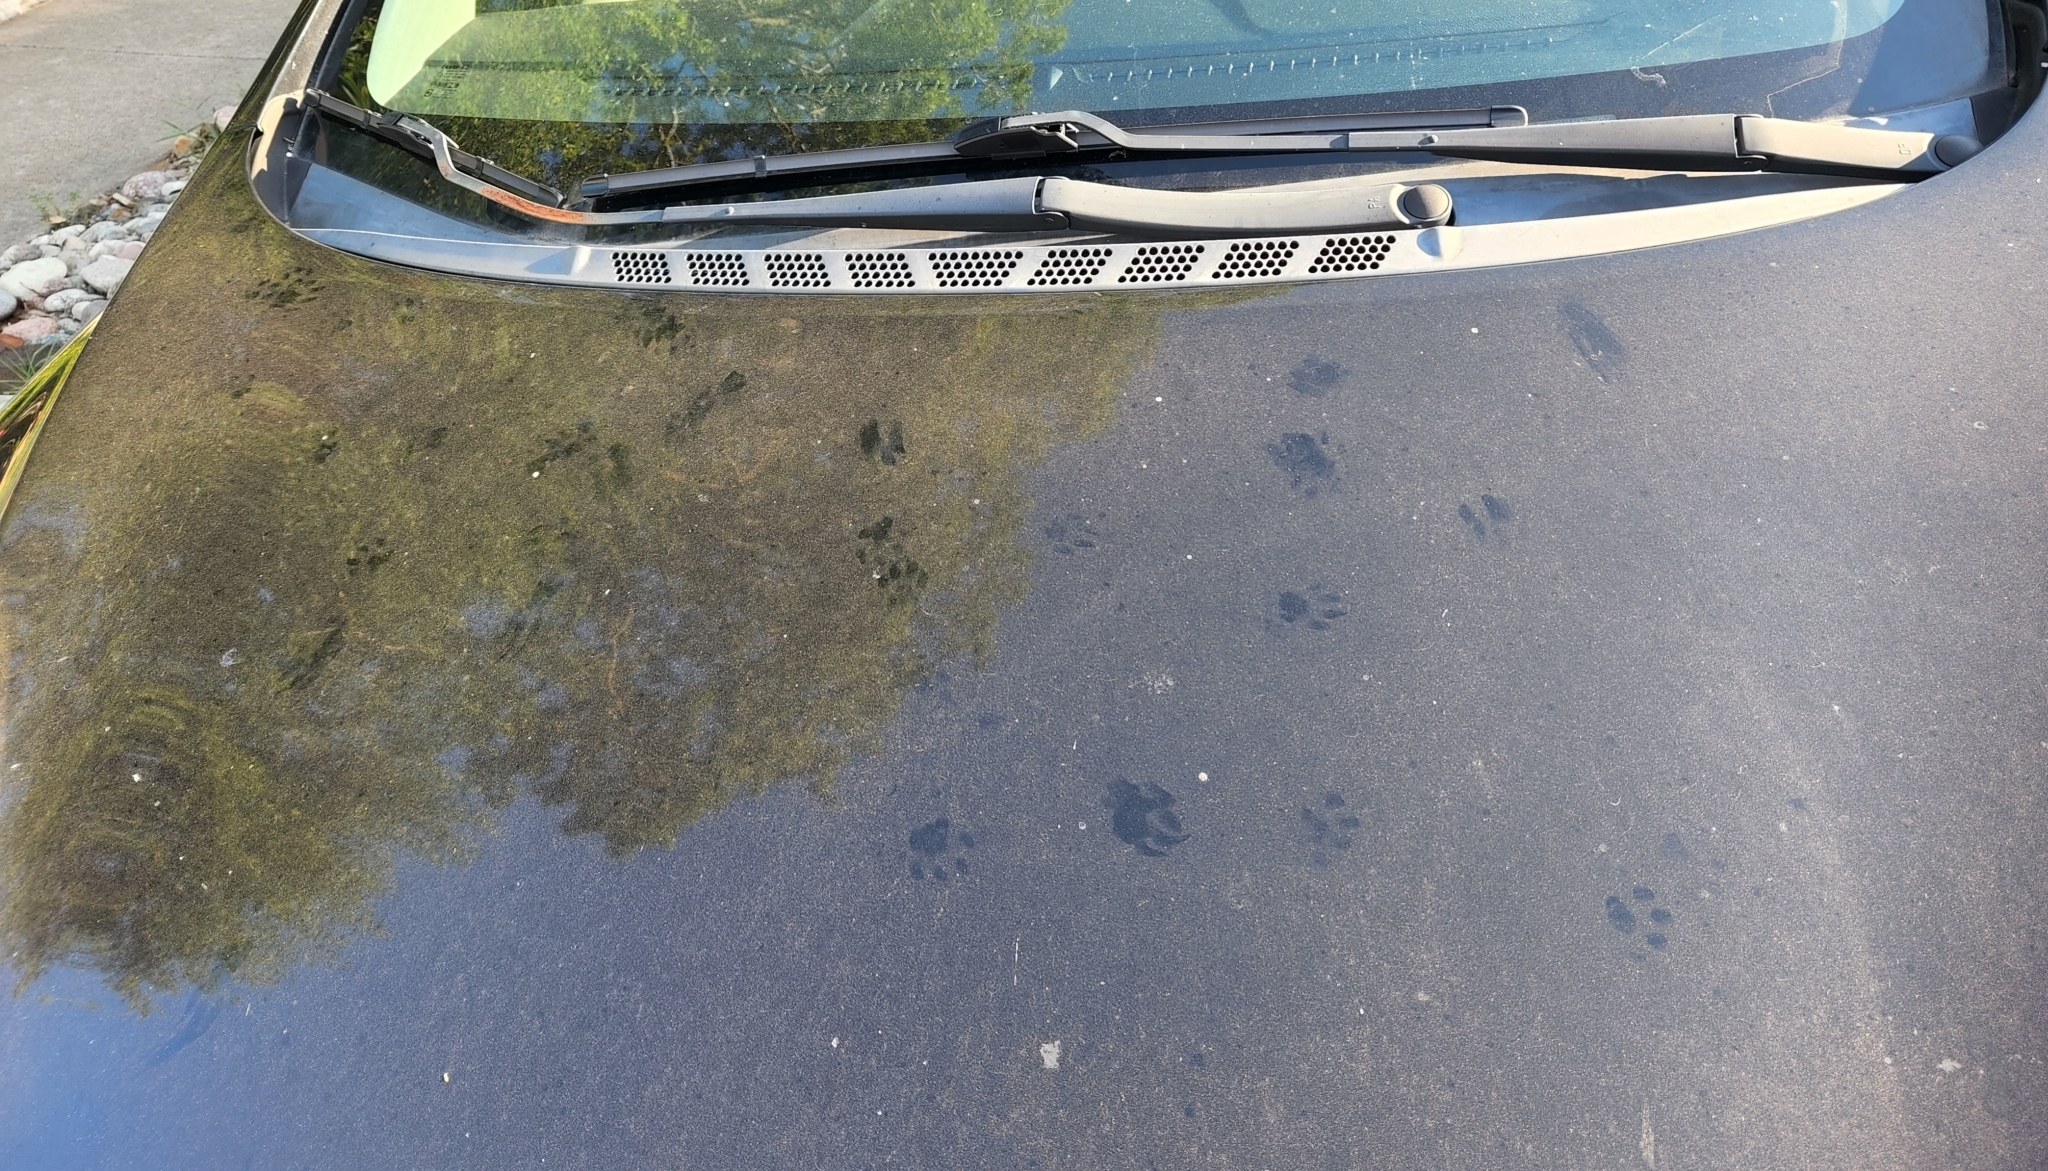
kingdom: Animalia
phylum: Chordata
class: Mammalia
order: Carnivora
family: Felidae
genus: Felis
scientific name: Felis catus
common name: Domestic cat
